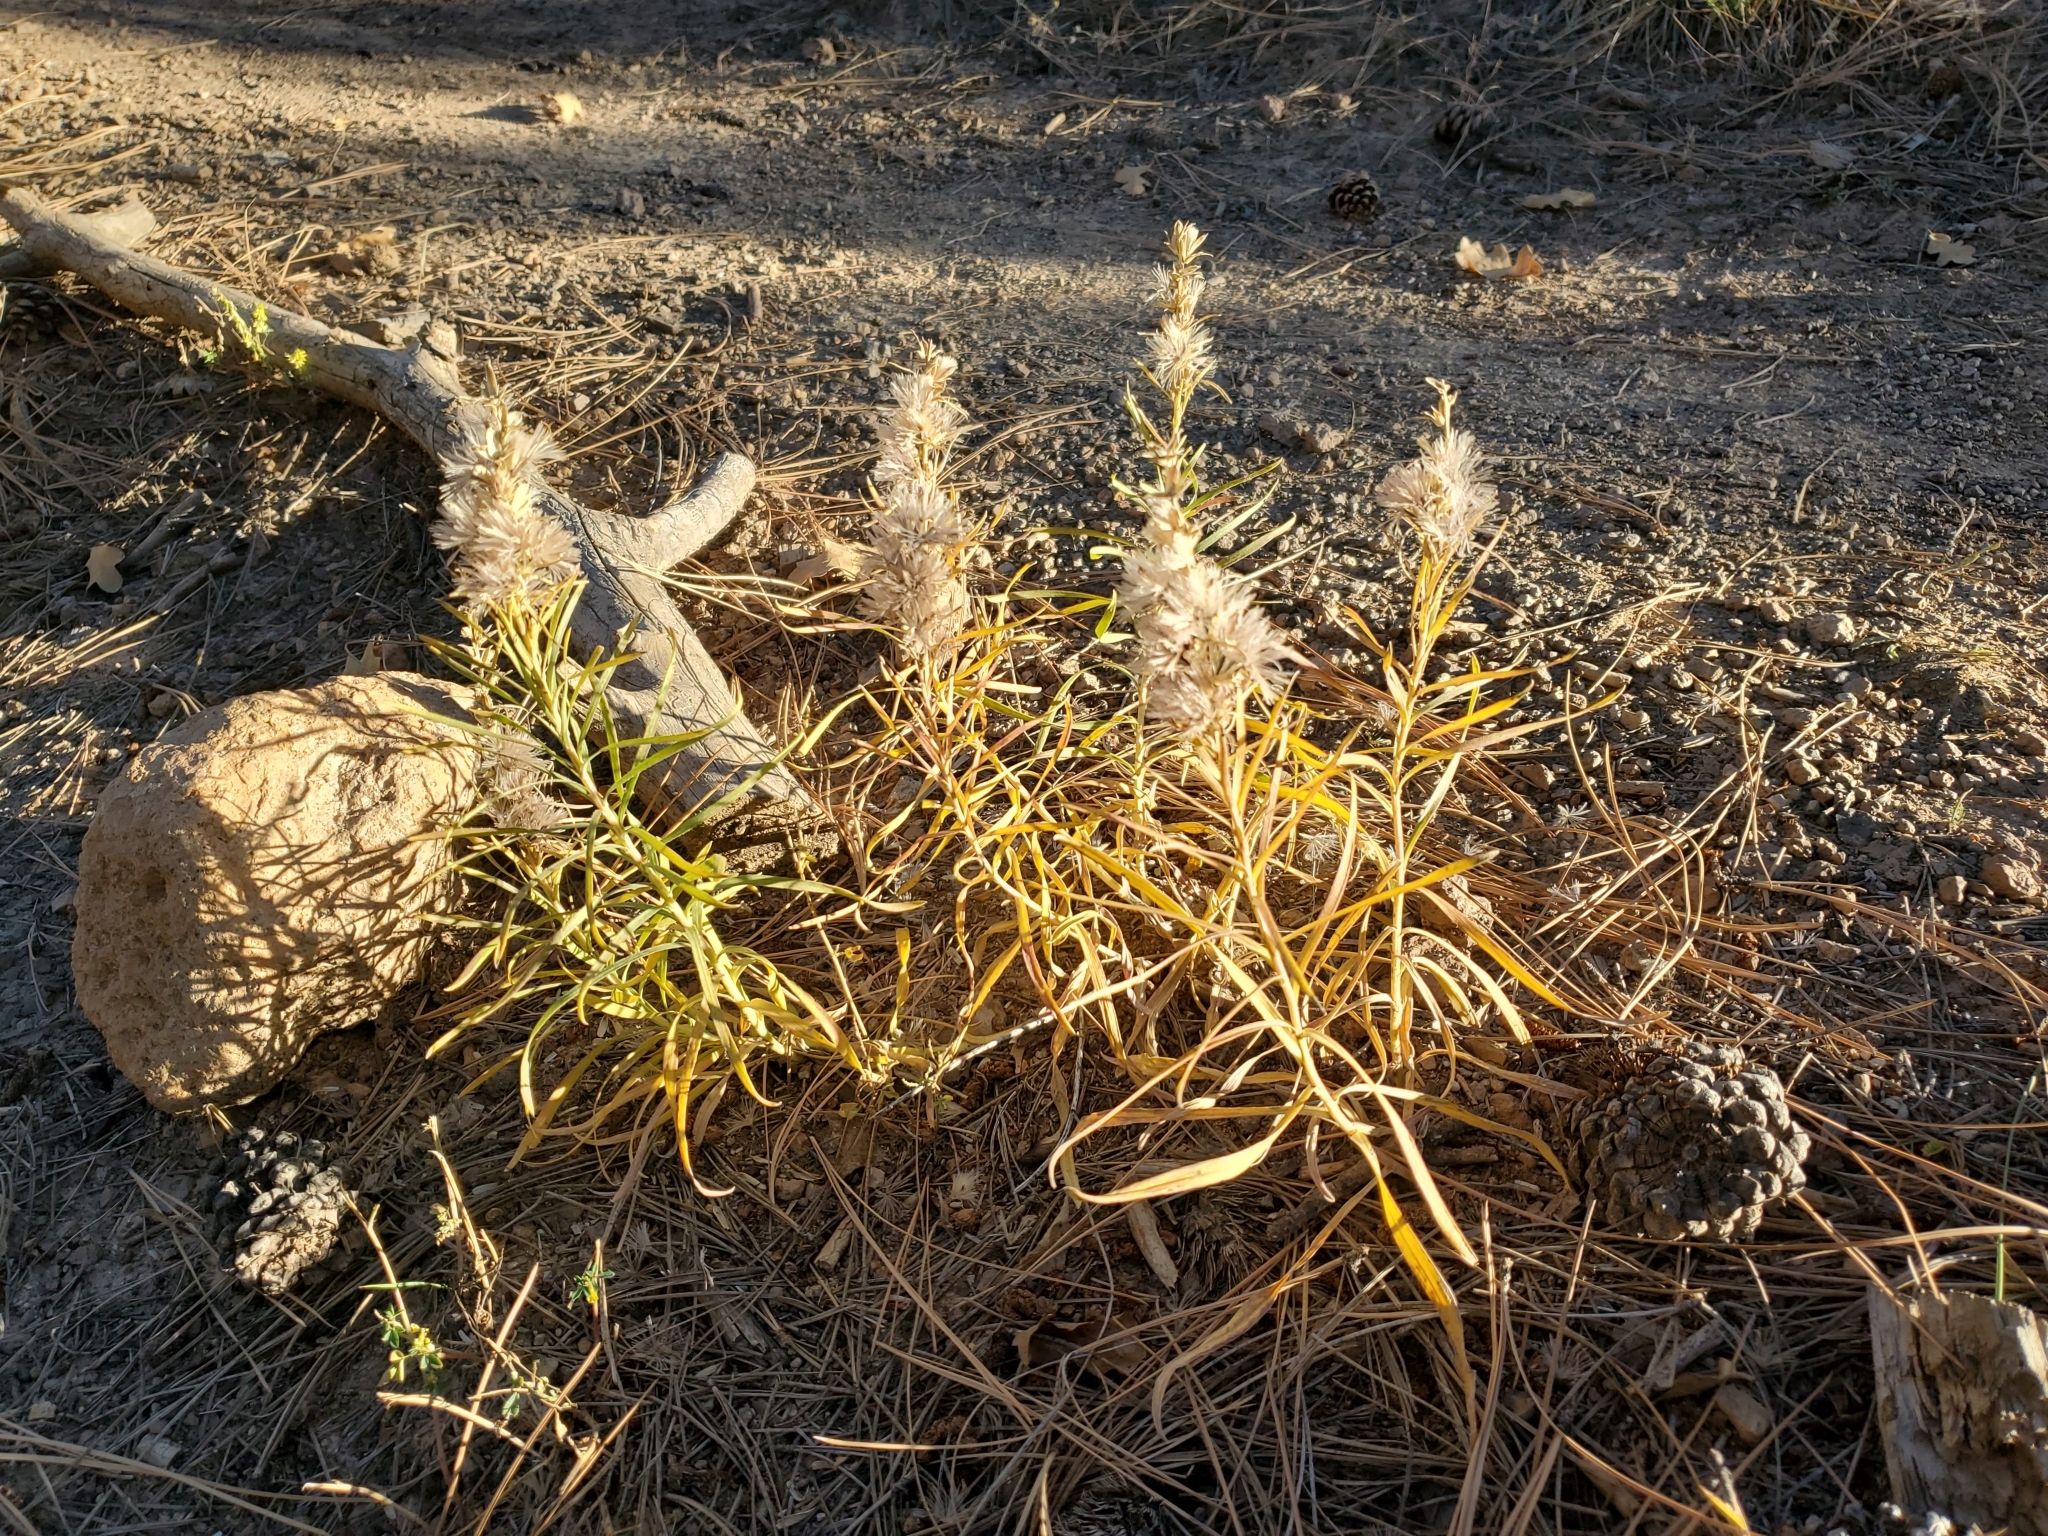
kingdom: Plantae
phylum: Tracheophyta
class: Magnoliopsida
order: Asterales
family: Asteraceae
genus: Liatris
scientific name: Liatris punctata
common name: Dotted gayfeather
